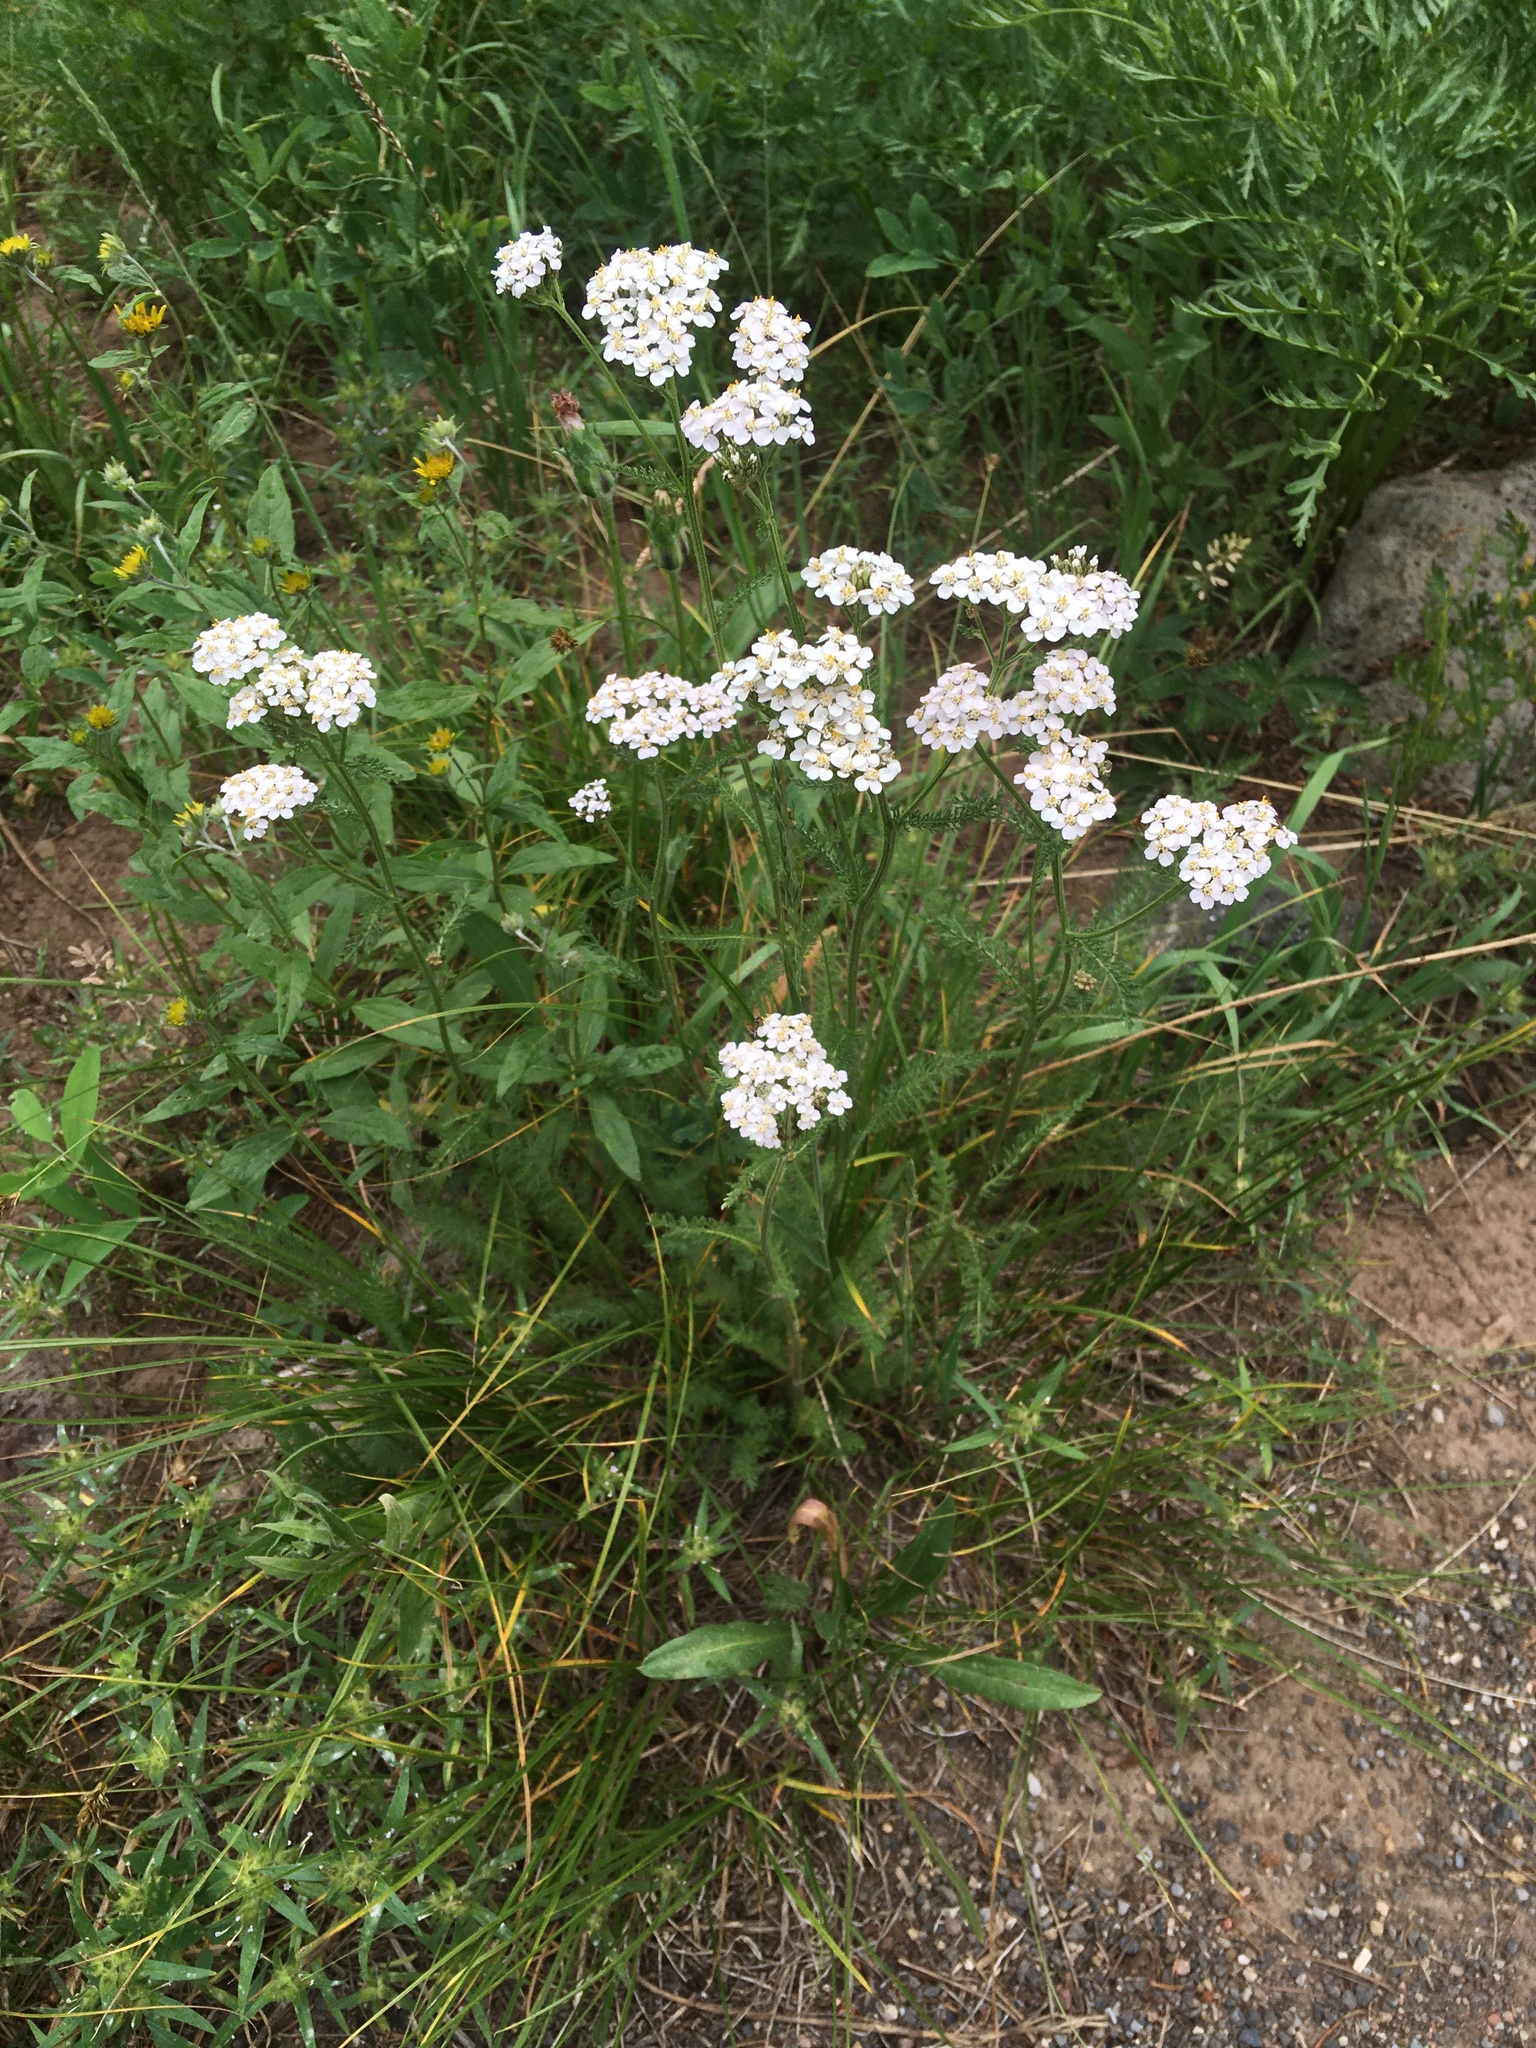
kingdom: Plantae
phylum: Tracheophyta
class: Magnoliopsida
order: Asterales
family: Asteraceae
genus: Achillea
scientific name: Achillea millefolium
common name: Yarrow
